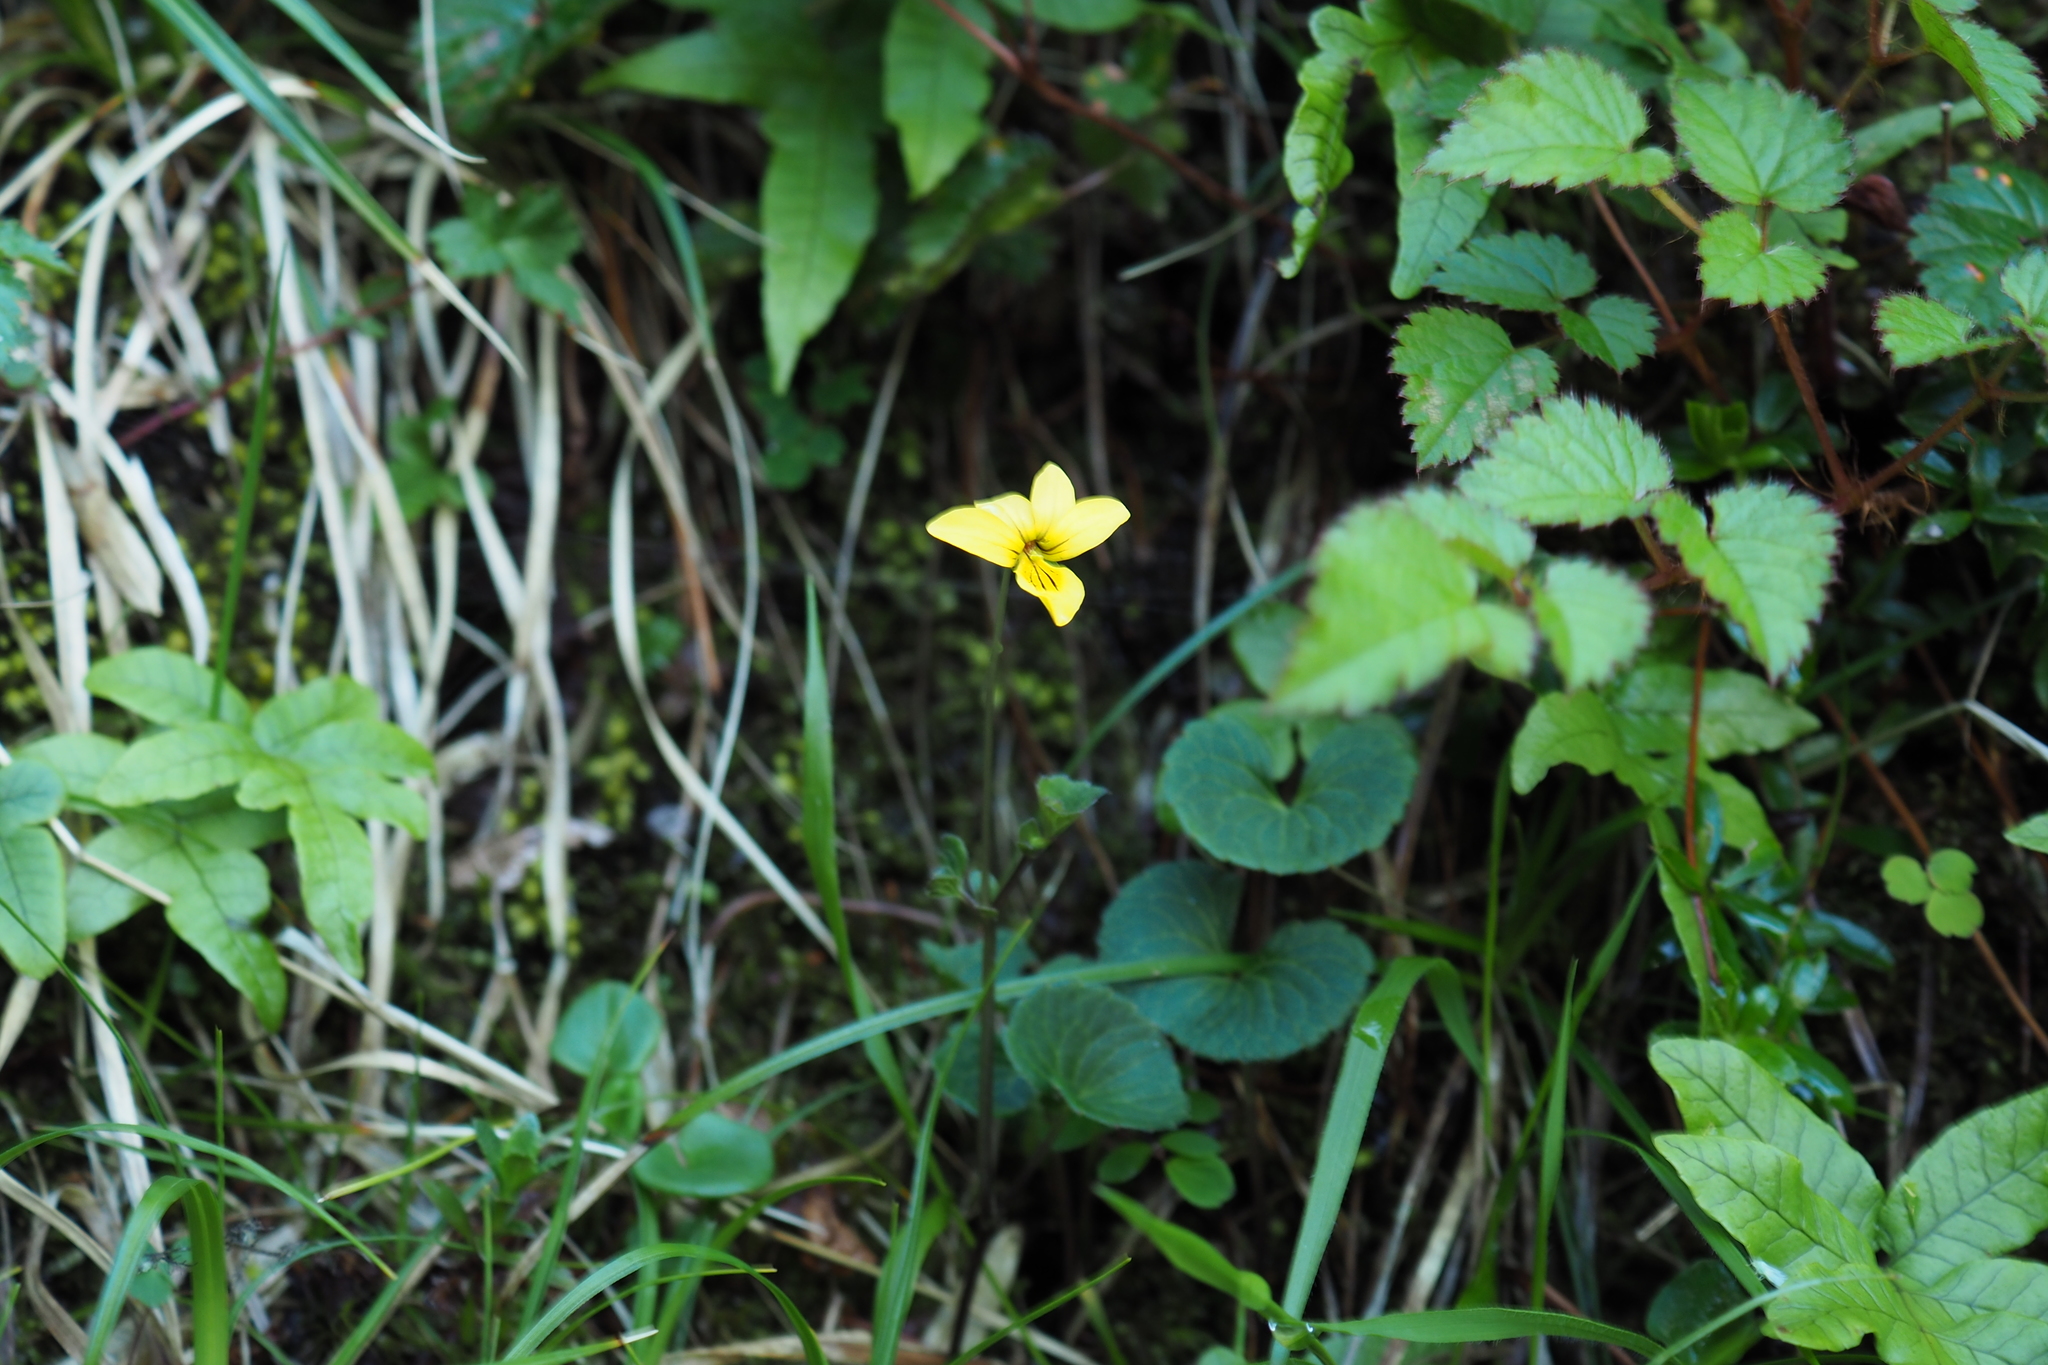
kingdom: Plantae
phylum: Tracheophyta
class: Magnoliopsida
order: Malpighiales
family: Violaceae
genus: Viola
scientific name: Viola biflora
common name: Alpine yellow violet
